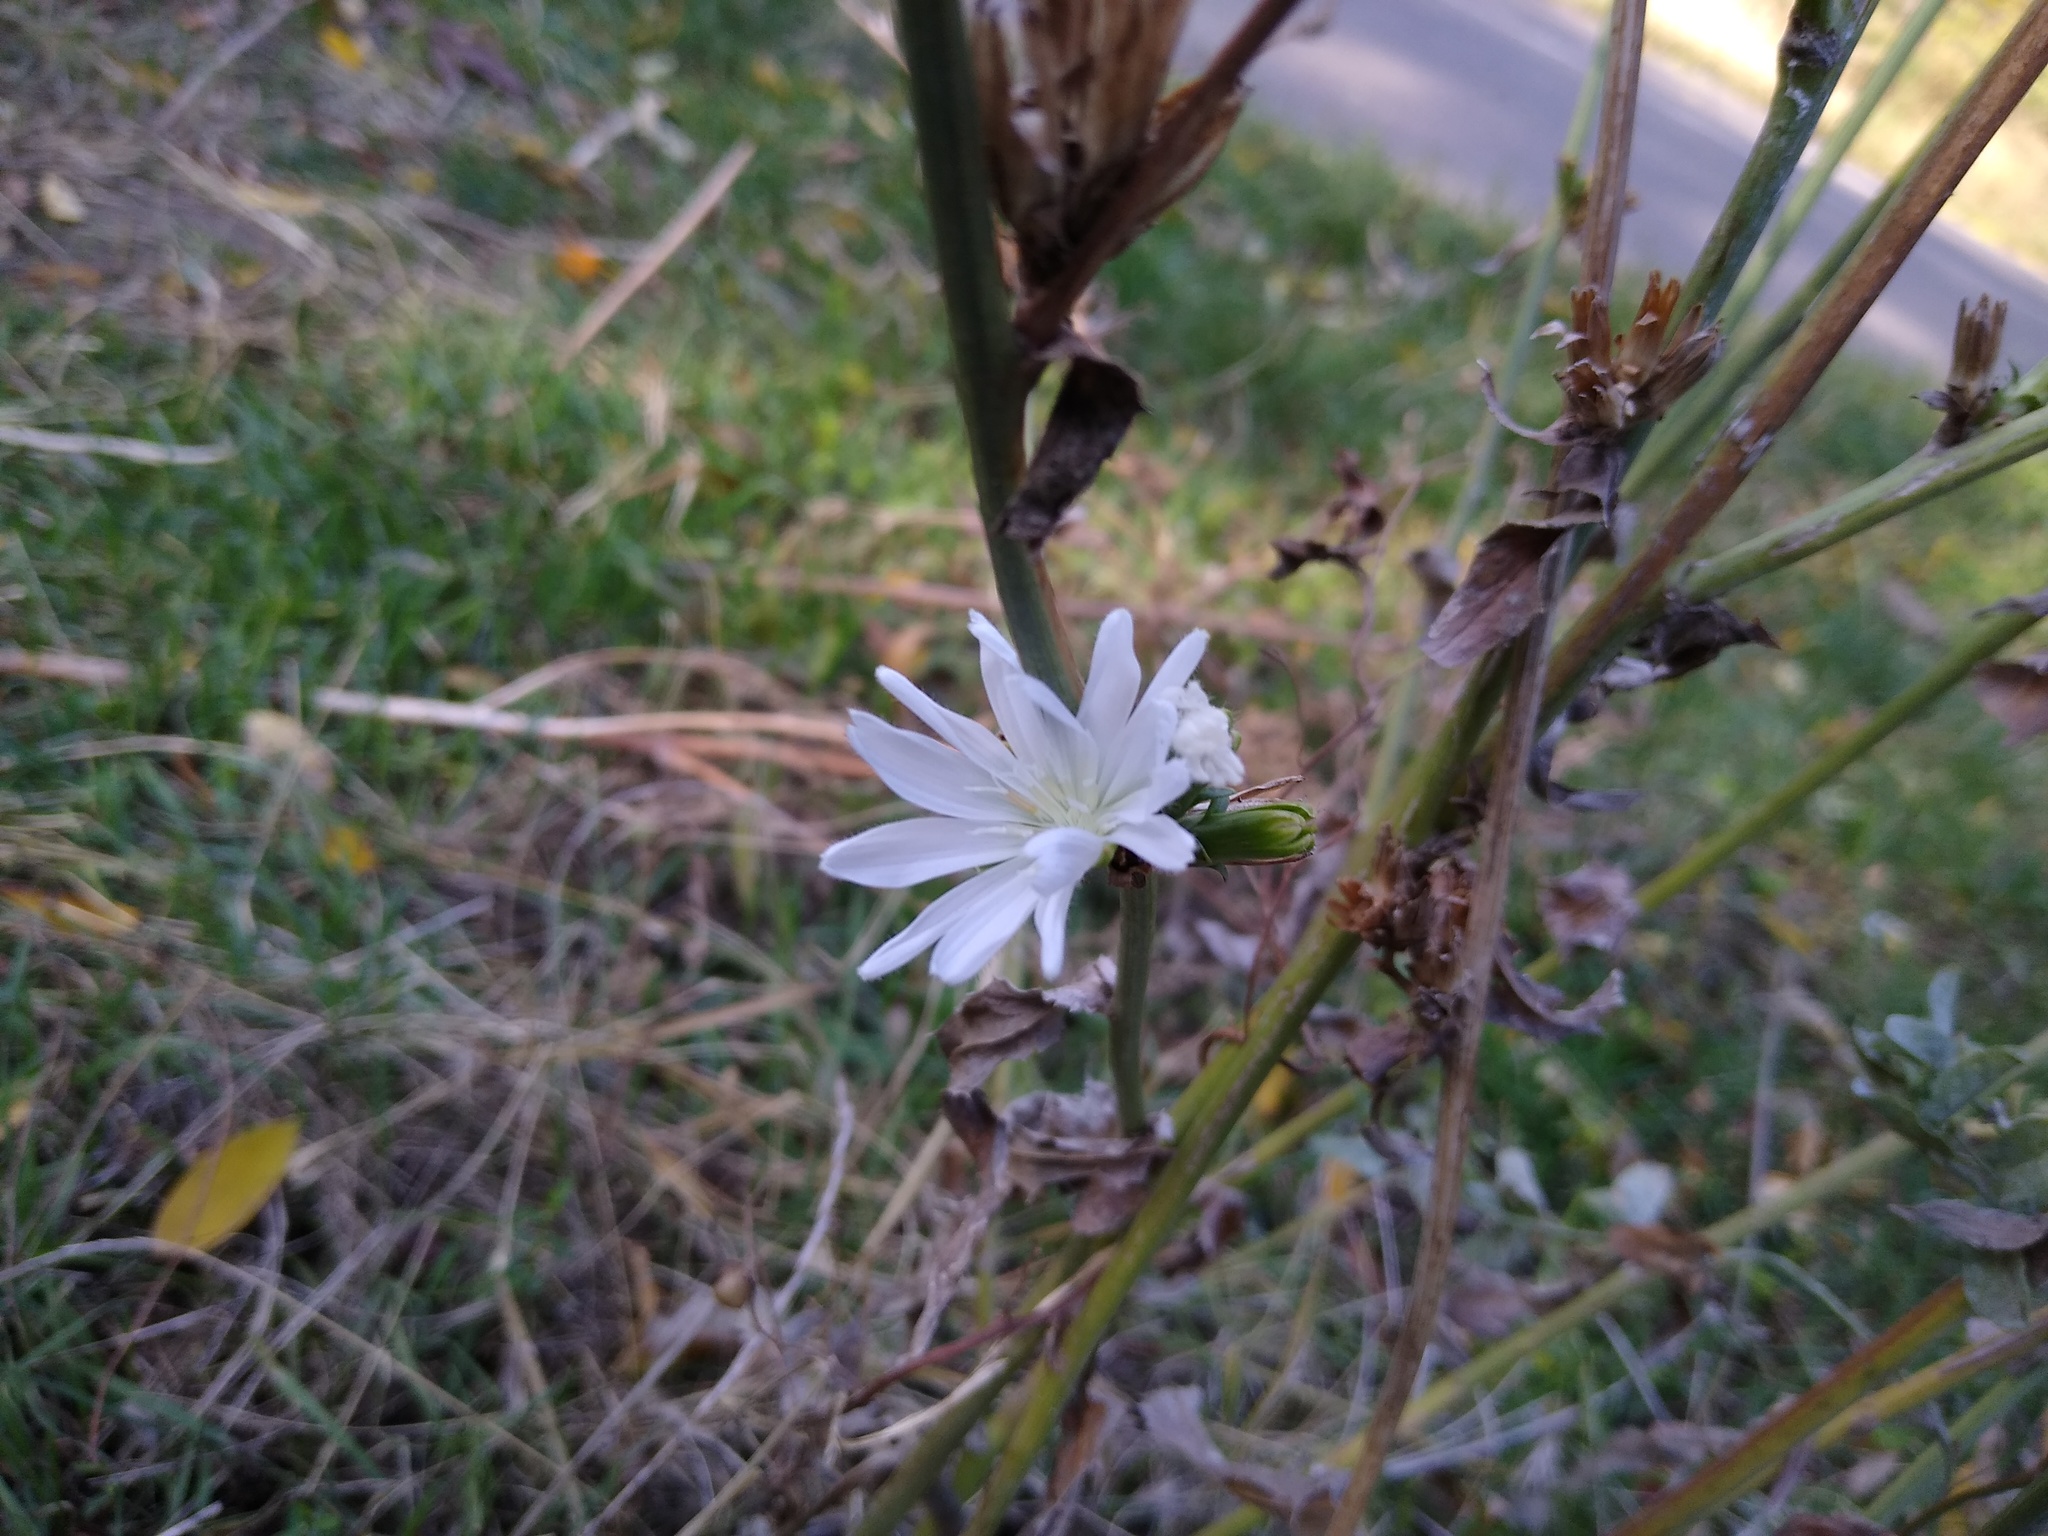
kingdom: Plantae
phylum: Tracheophyta
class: Magnoliopsida
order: Asterales
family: Asteraceae
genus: Cichorium
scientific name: Cichorium intybus
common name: Chicory
